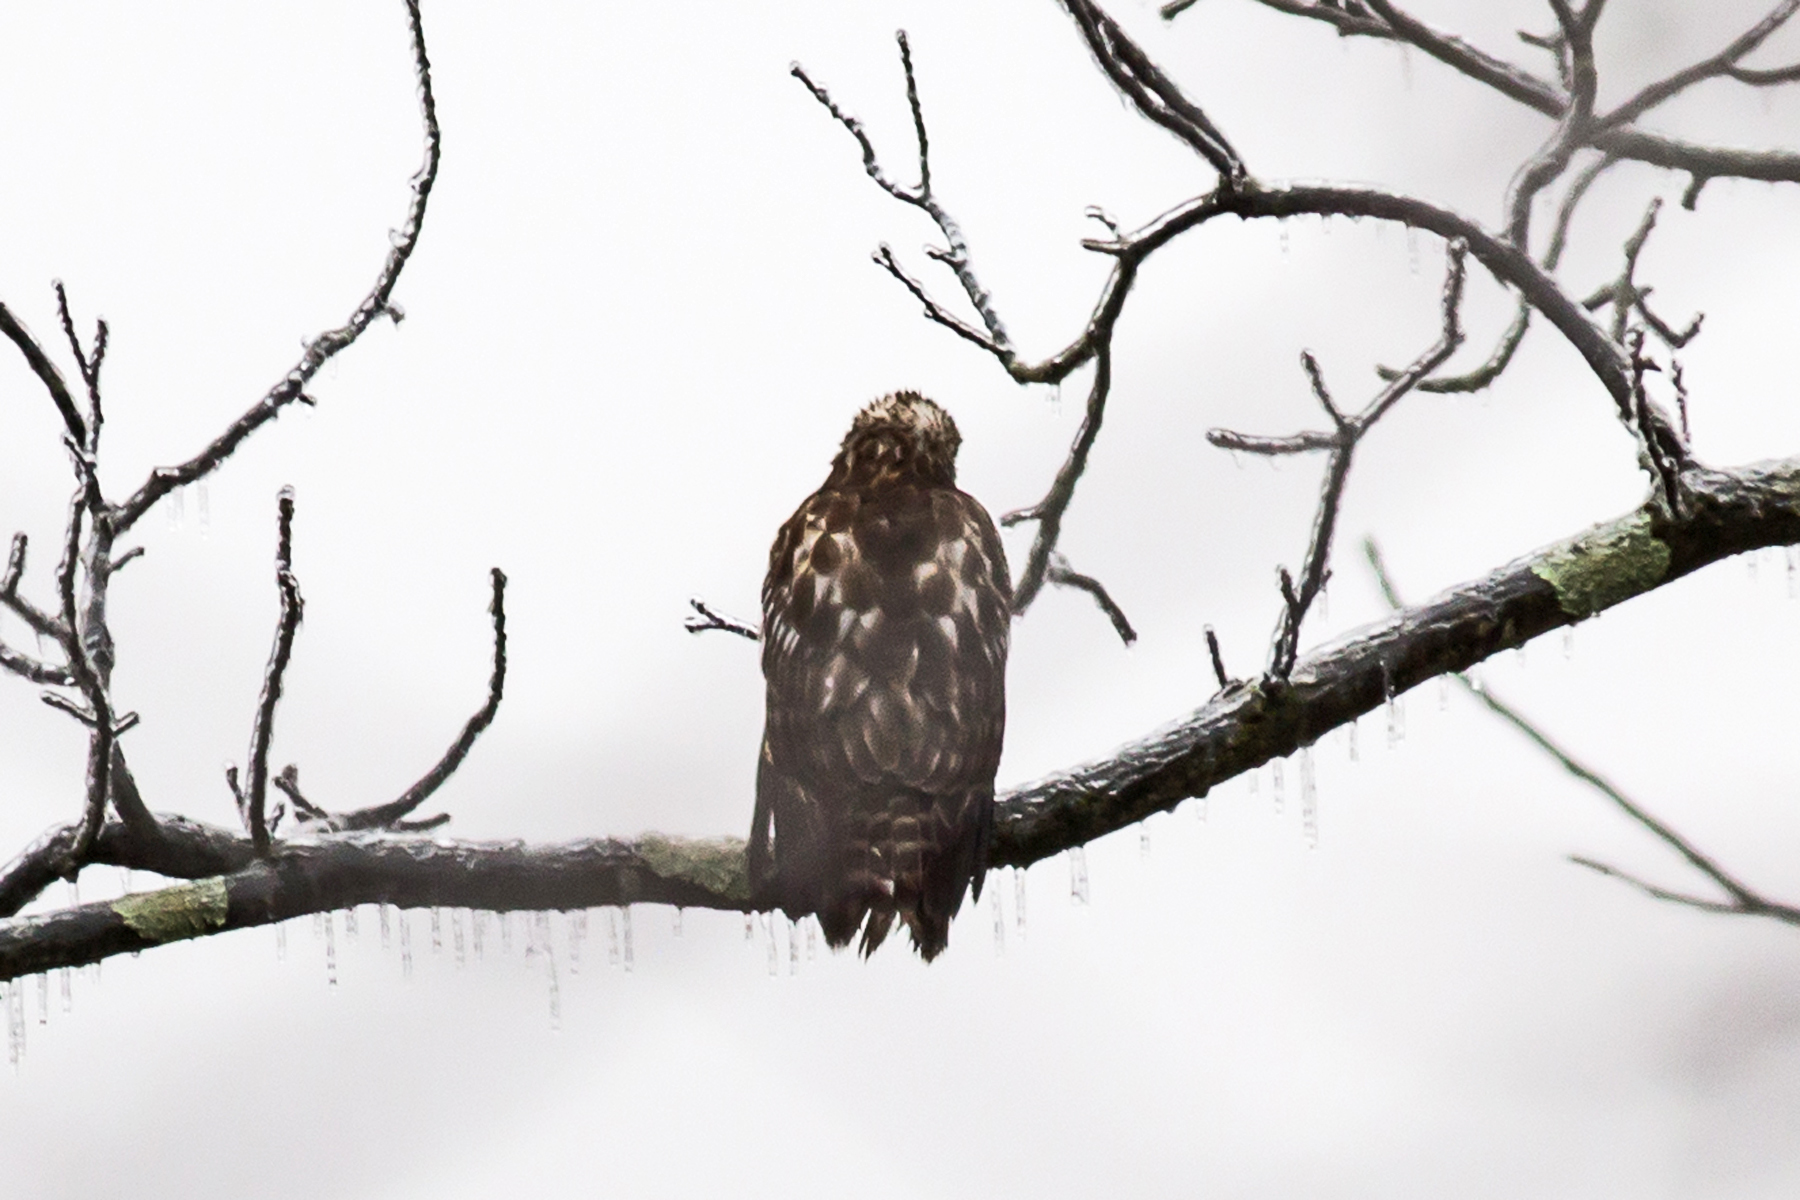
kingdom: Animalia
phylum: Chordata
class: Aves
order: Accipitriformes
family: Accipitridae
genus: Buteo
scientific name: Buteo lineatus
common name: Red-shouldered hawk
